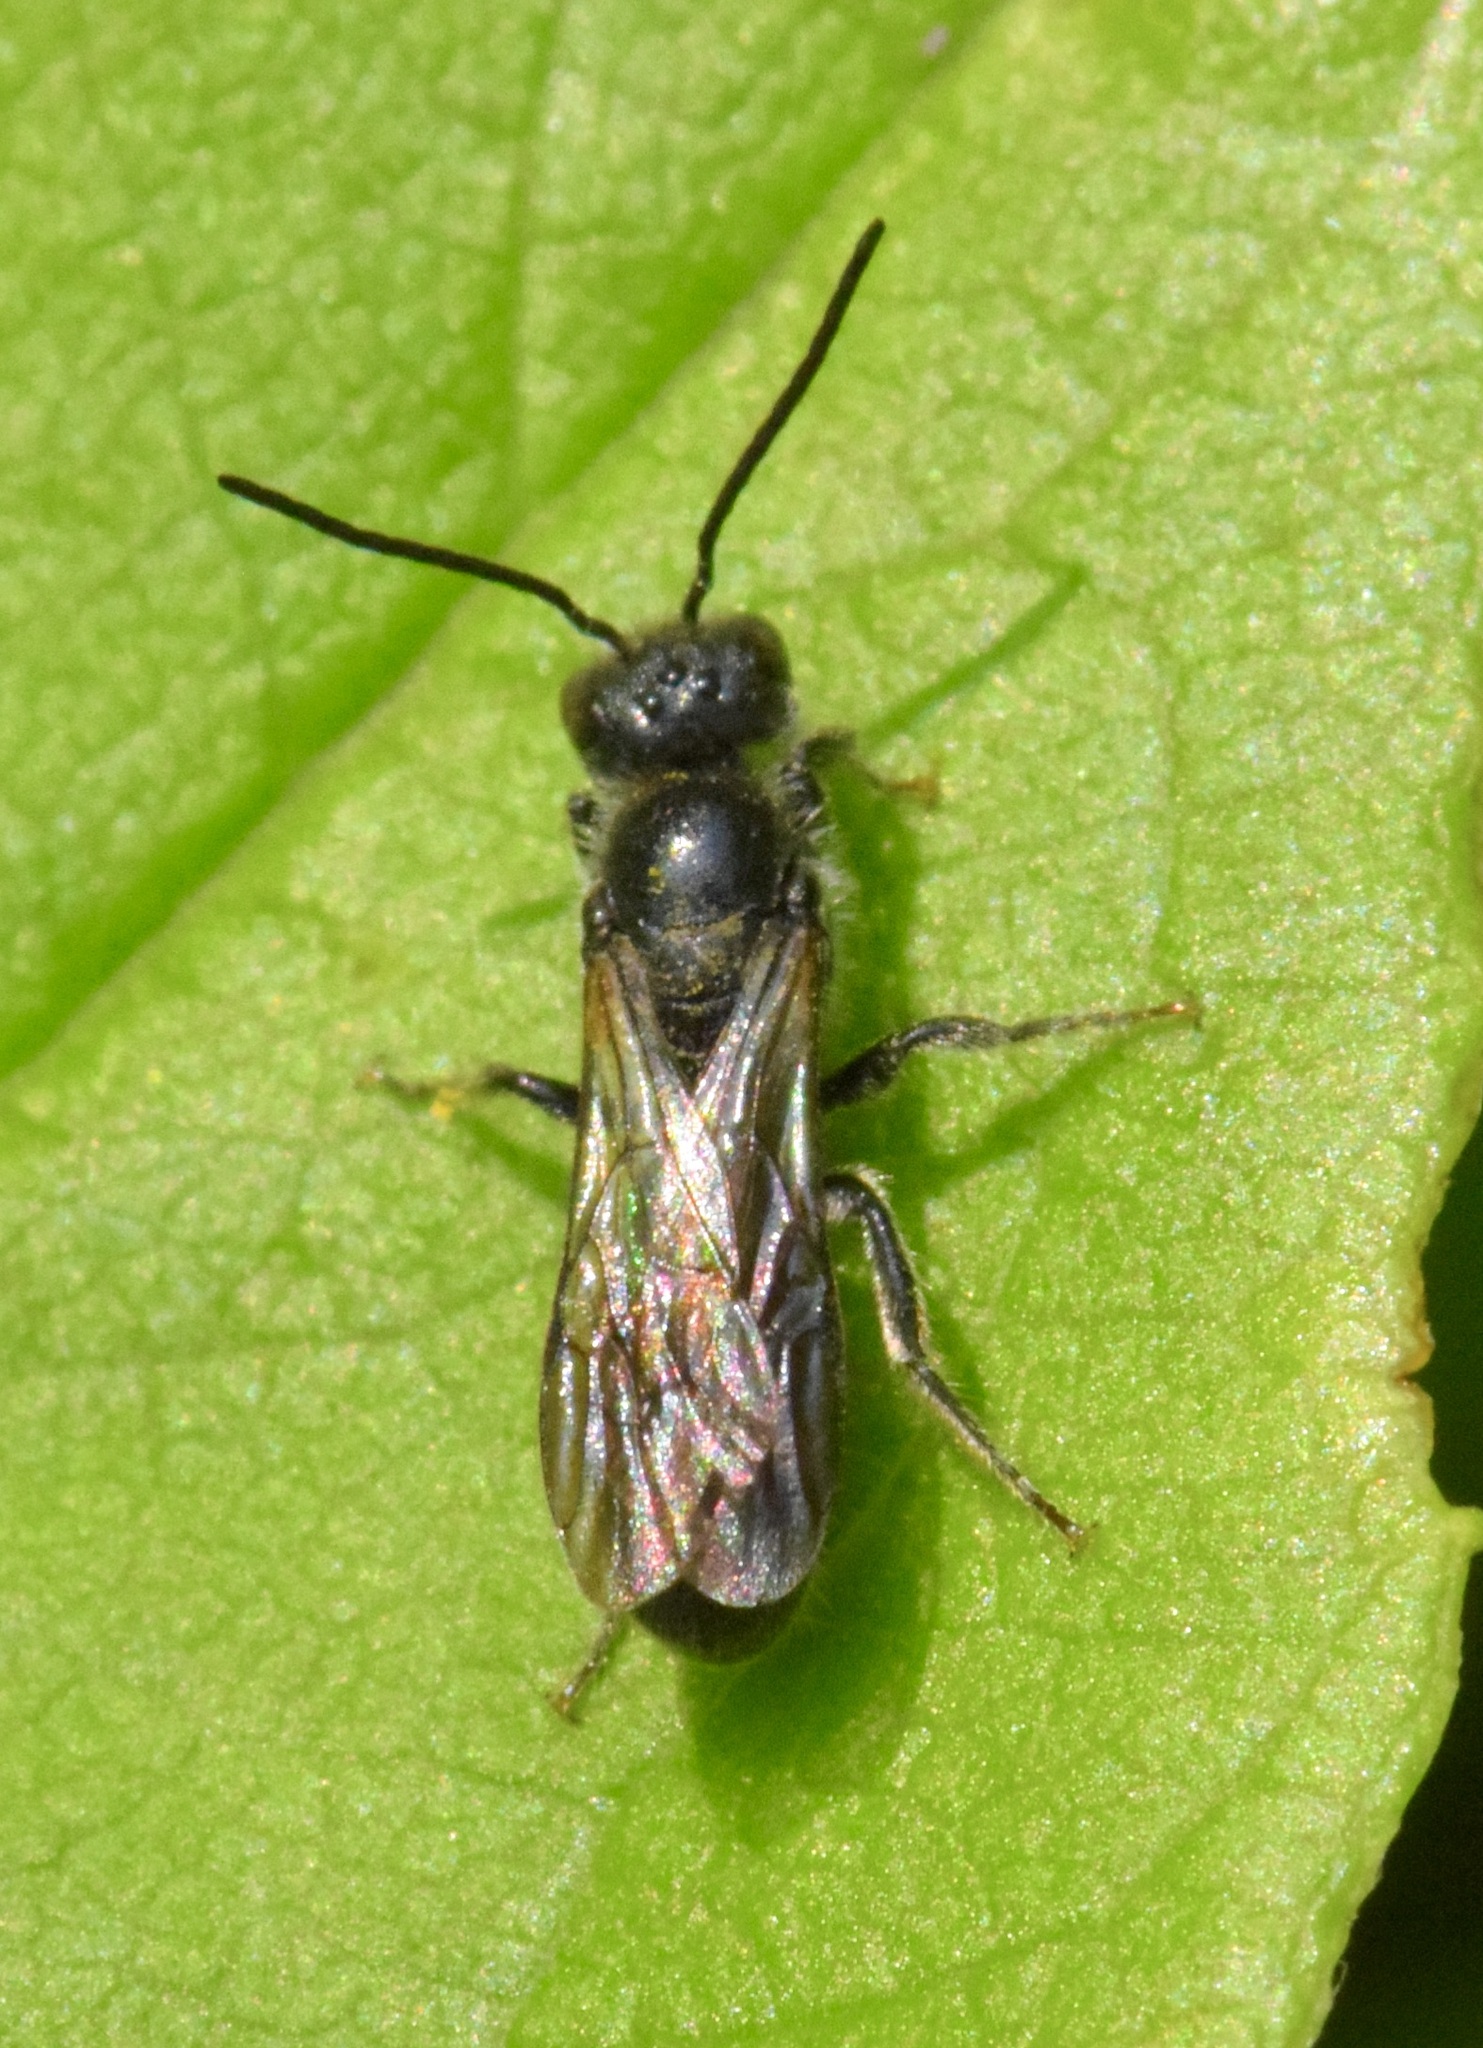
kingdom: Animalia
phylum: Arthropoda
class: Insecta
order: Hymenoptera
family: Megachilidae
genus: Chelostoma
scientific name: Chelostoma philadelphi
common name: Mock-orange scissor bee
